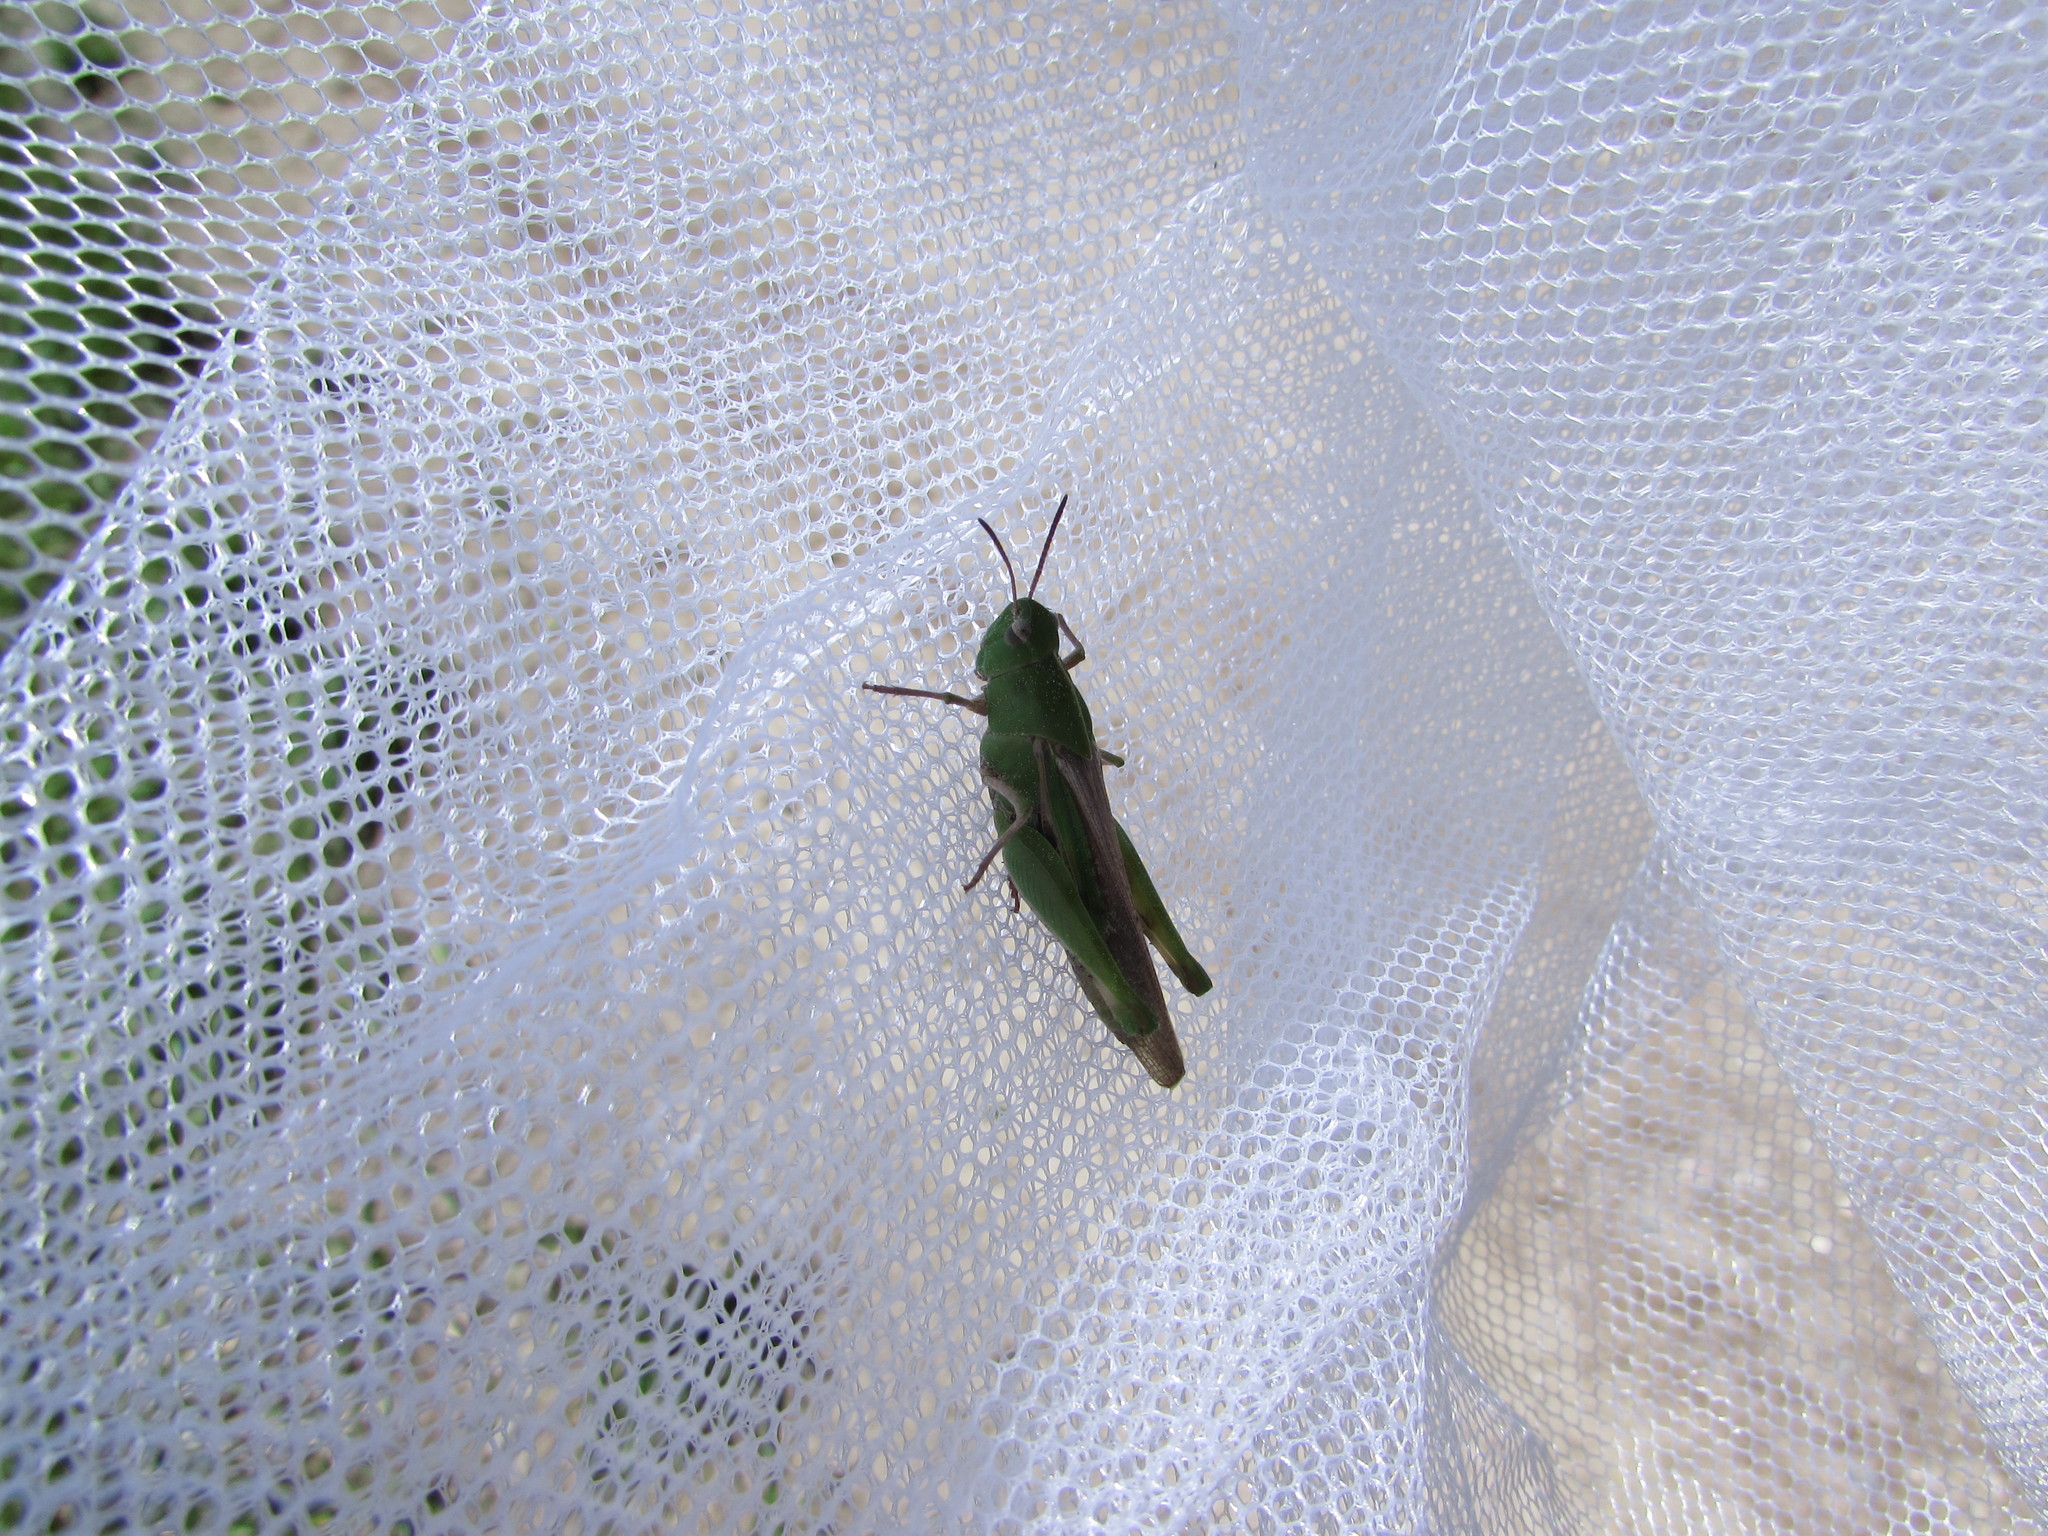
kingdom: Animalia
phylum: Arthropoda
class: Insecta
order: Orthoptera
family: Acrididae
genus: Chortophaga
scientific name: Chortophaga viridifasciata
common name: Green-striped grasshopper
